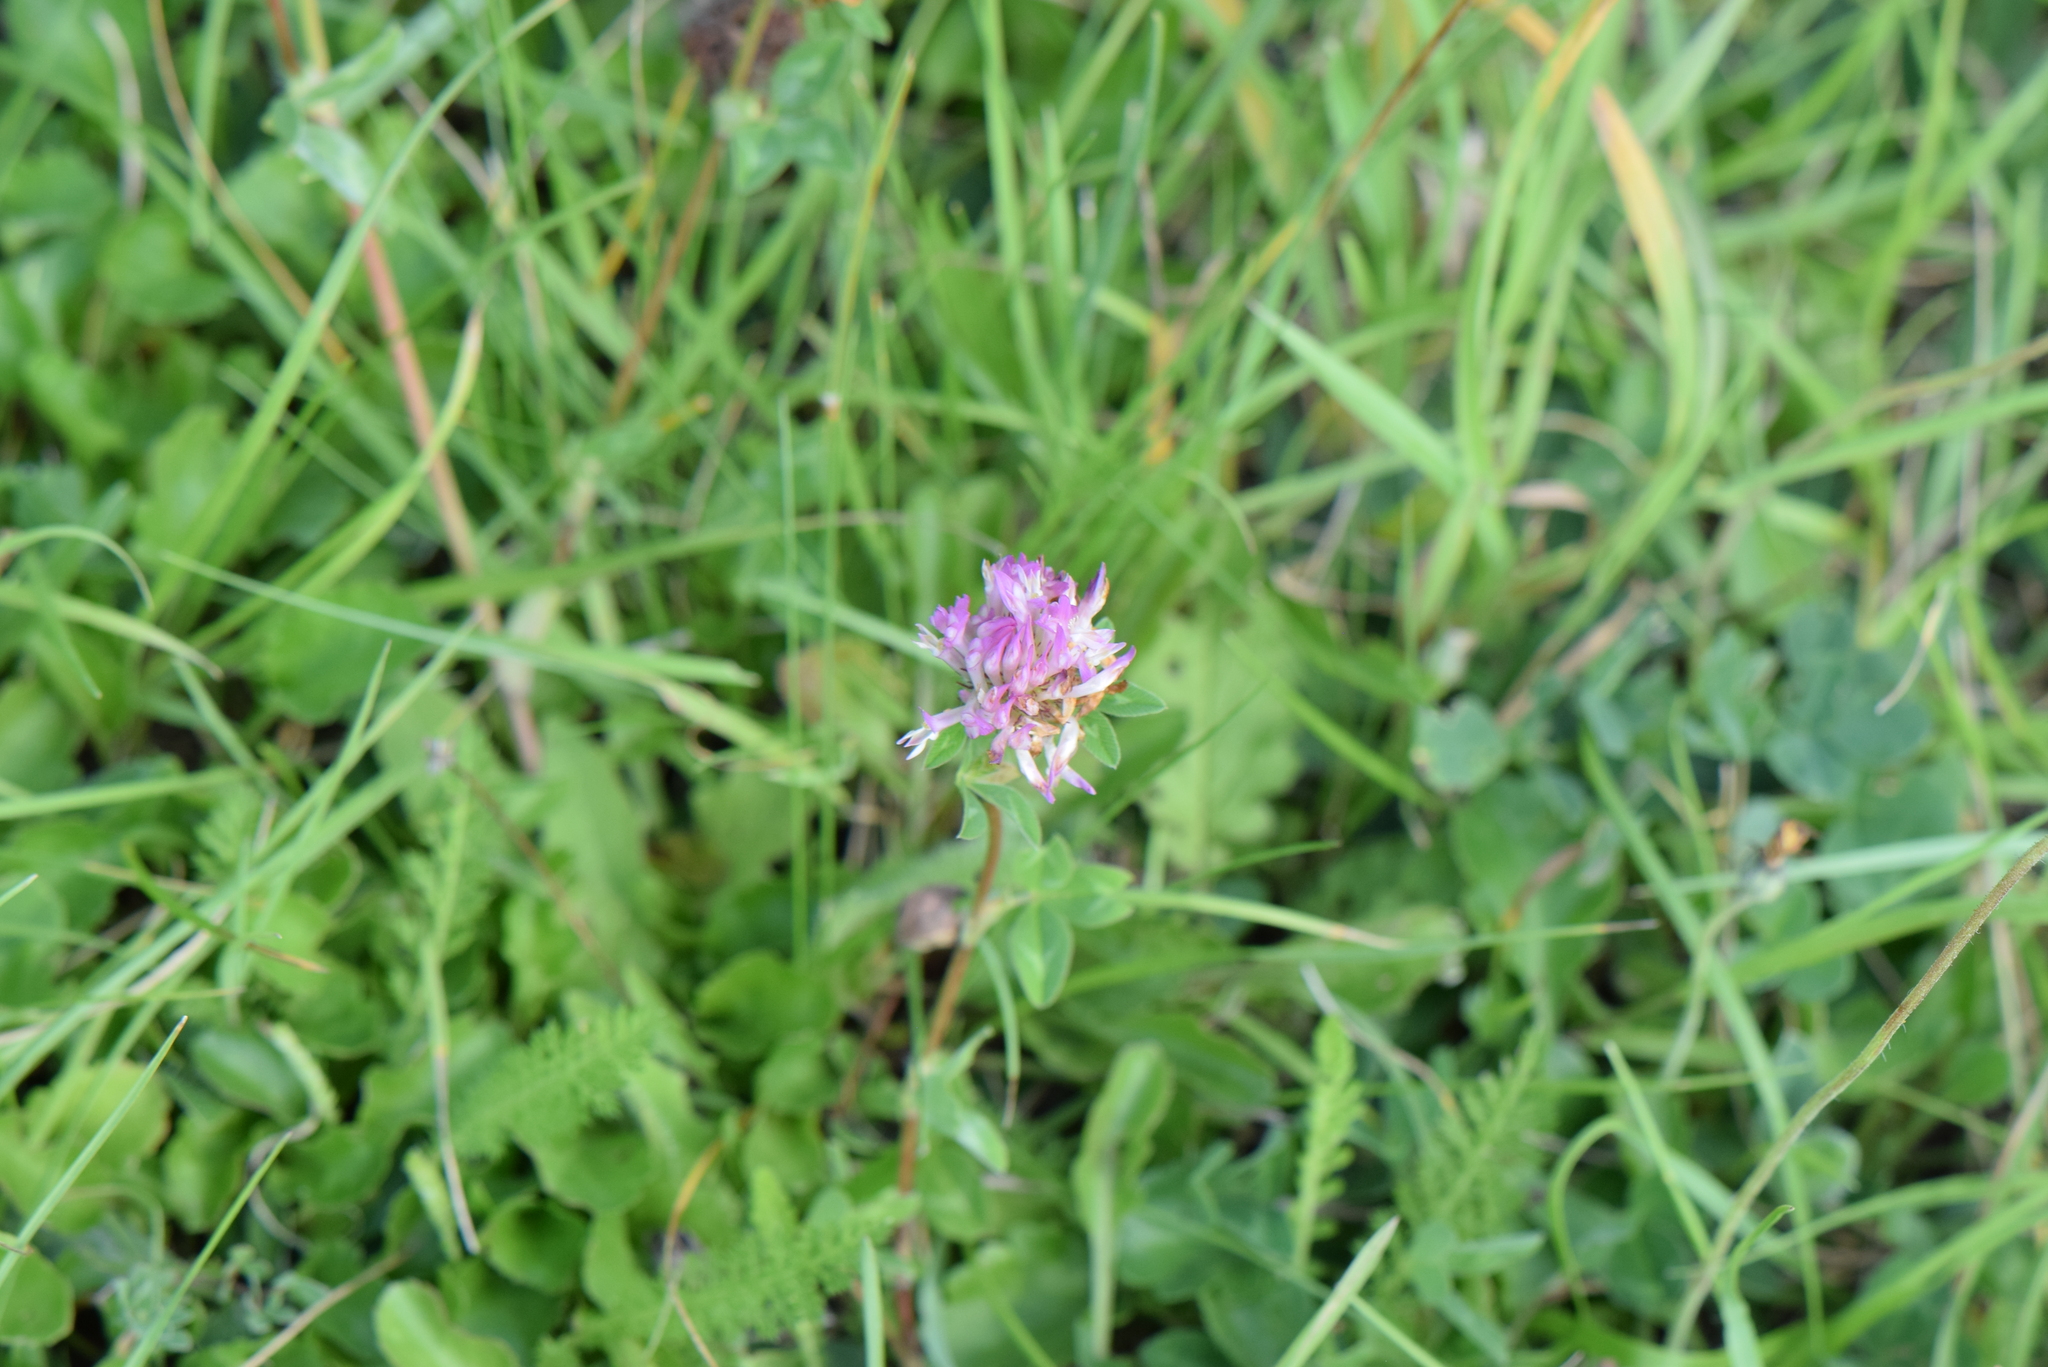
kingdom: Plantae
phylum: Tracheophyta
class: Magnoliopsida
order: Fabales
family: Fabaceae
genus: Trifolium
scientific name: Trifolium pratense
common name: Red clover
